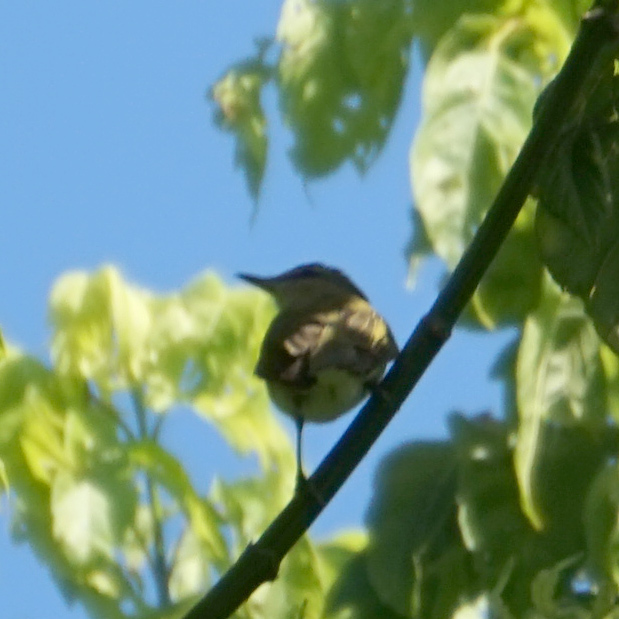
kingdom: Animalia
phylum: Chordata
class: Aves
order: Passeriformes
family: Vireonidae
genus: Vireo
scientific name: Vireo olivaceus
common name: Red-eyed vireo
